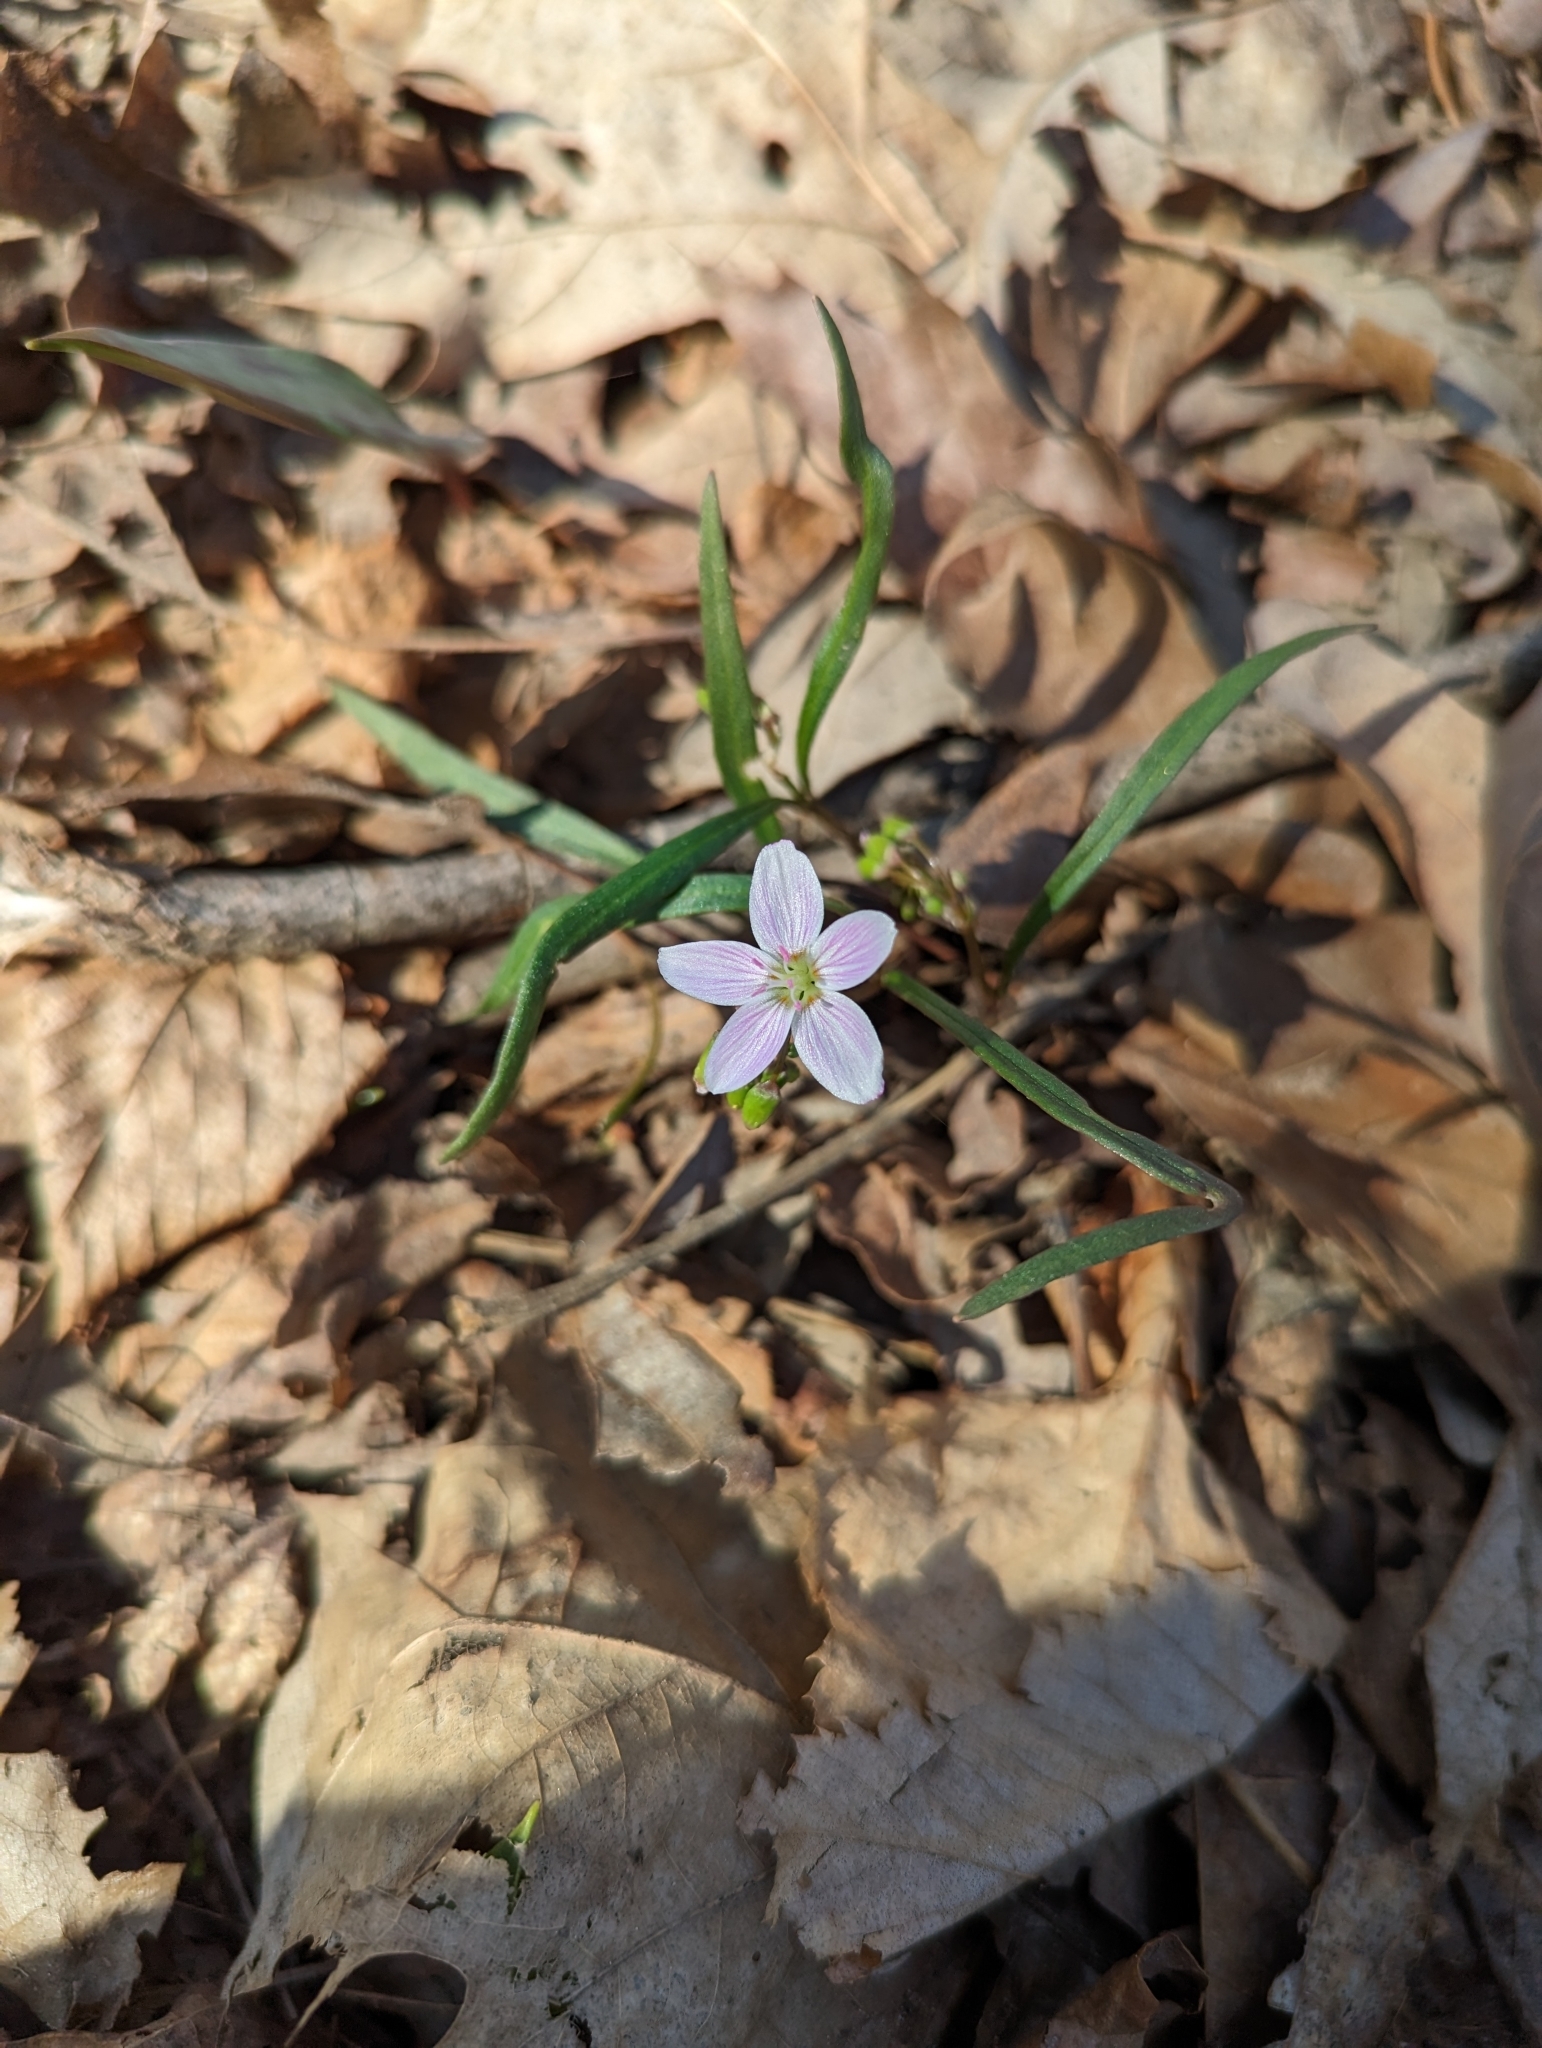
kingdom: Plantae
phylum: Tracheophyta
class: Magnoliopsida
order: Caryophyllales
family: Montiaceae
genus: Claytonia
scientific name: Claytonia virginica
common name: Virginia springbeauty
